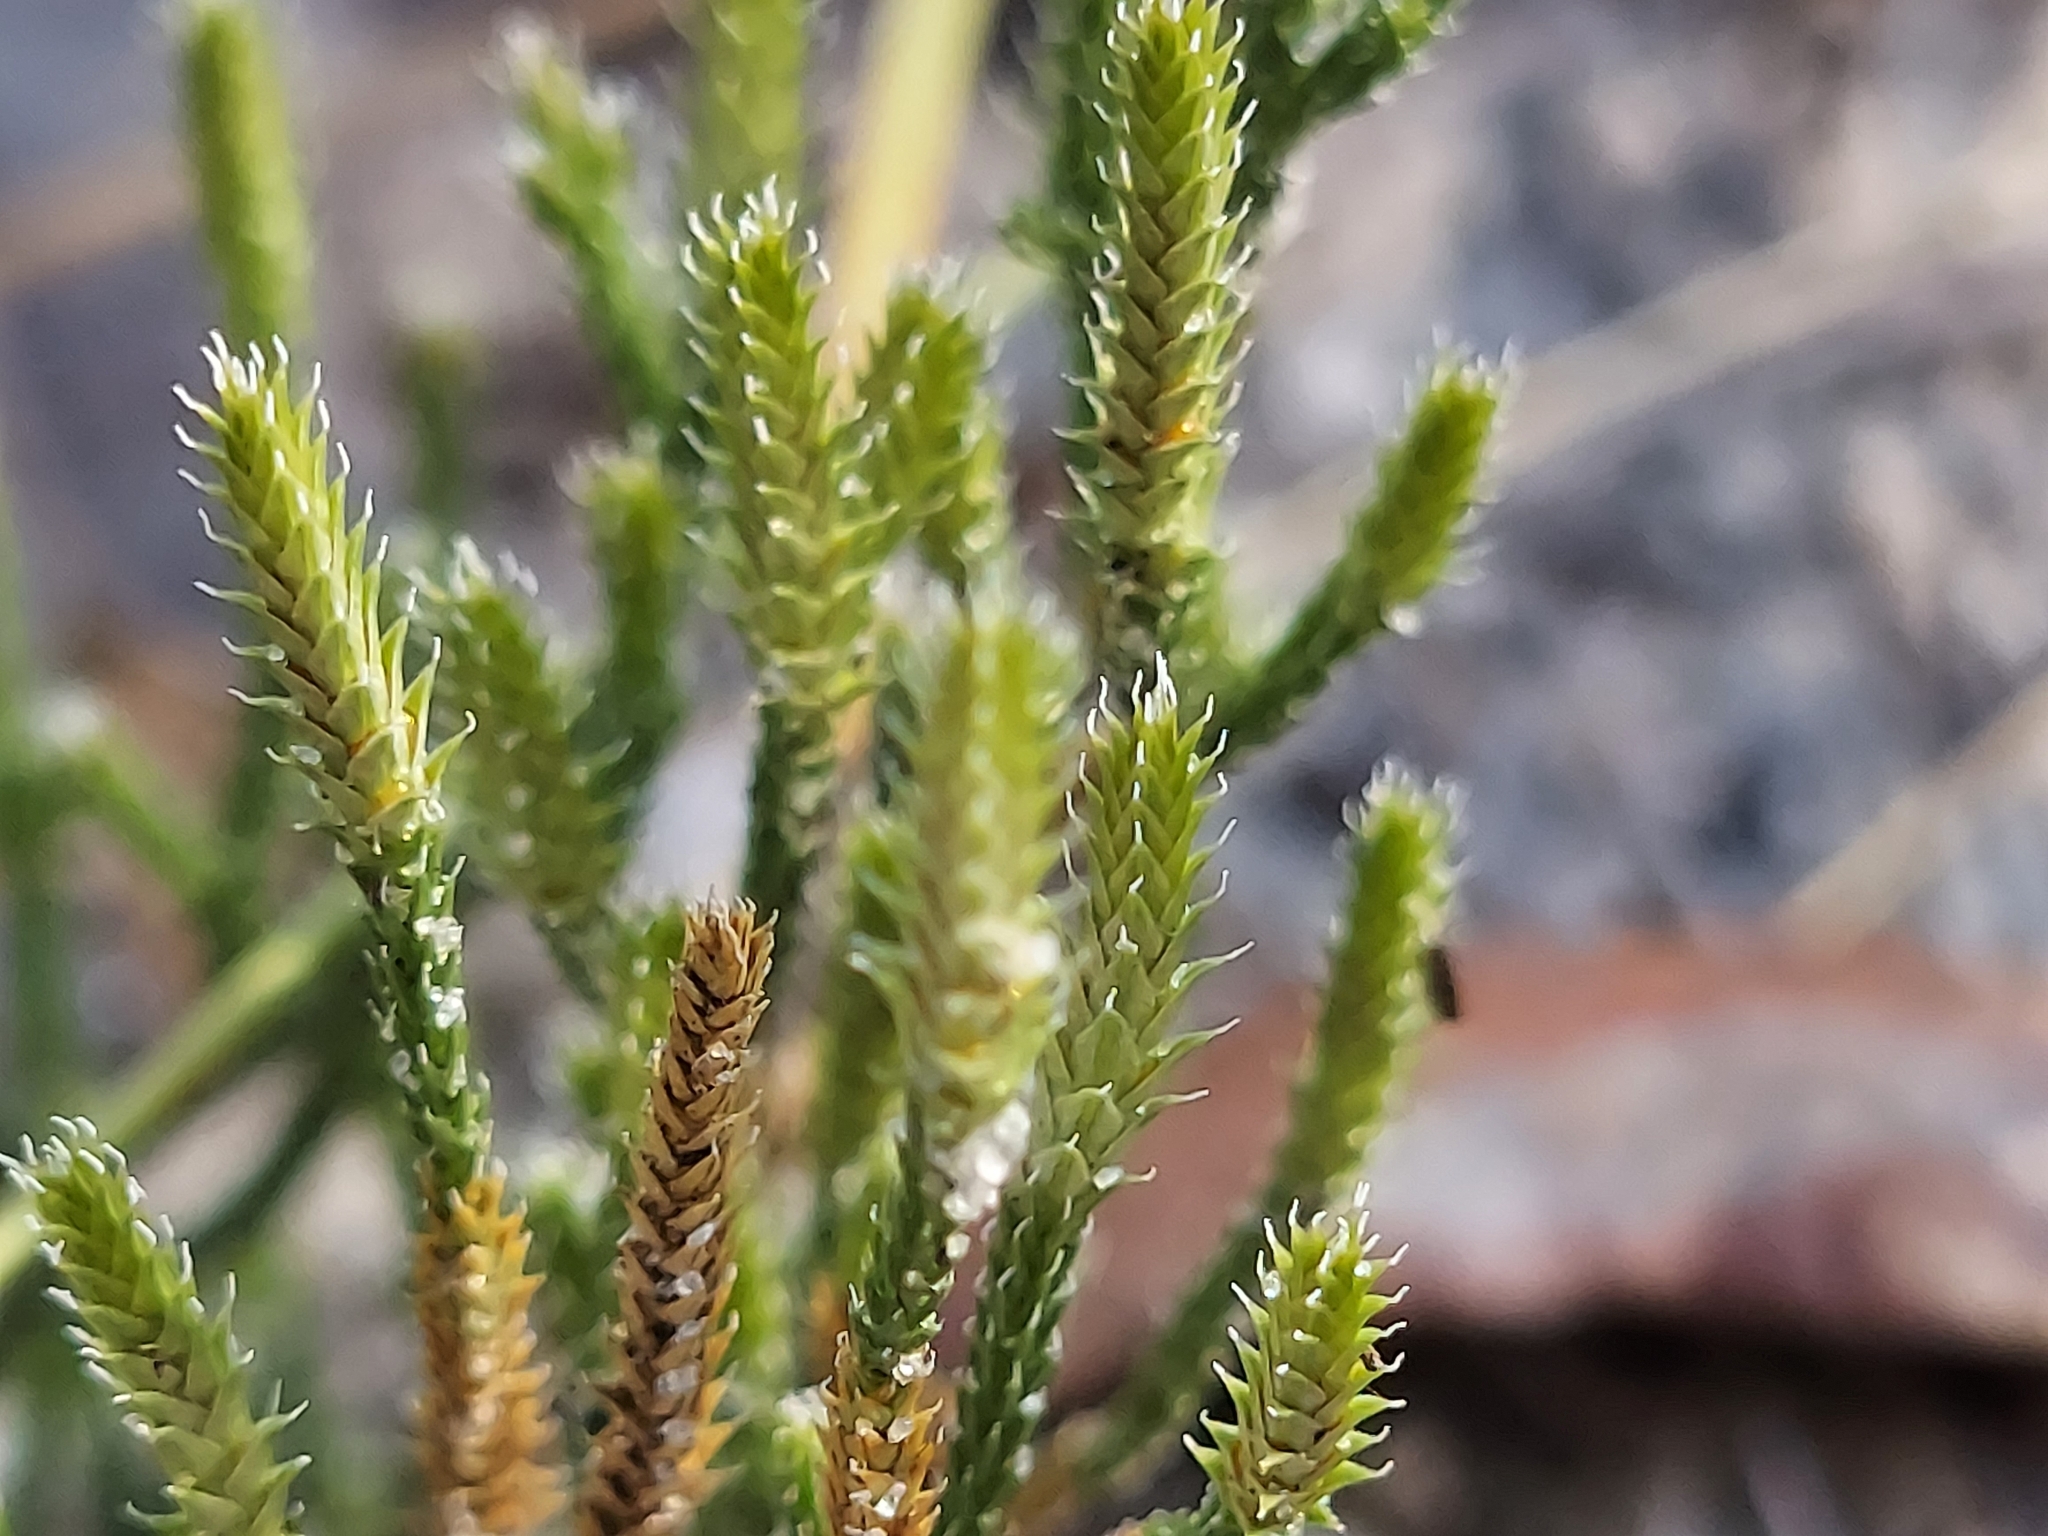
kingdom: Plantae
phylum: Tracheophyta
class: Lycopodiopsida
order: Selaginellales
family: Selaginellaceae
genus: Selaginella
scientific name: Selaginella arenicola
